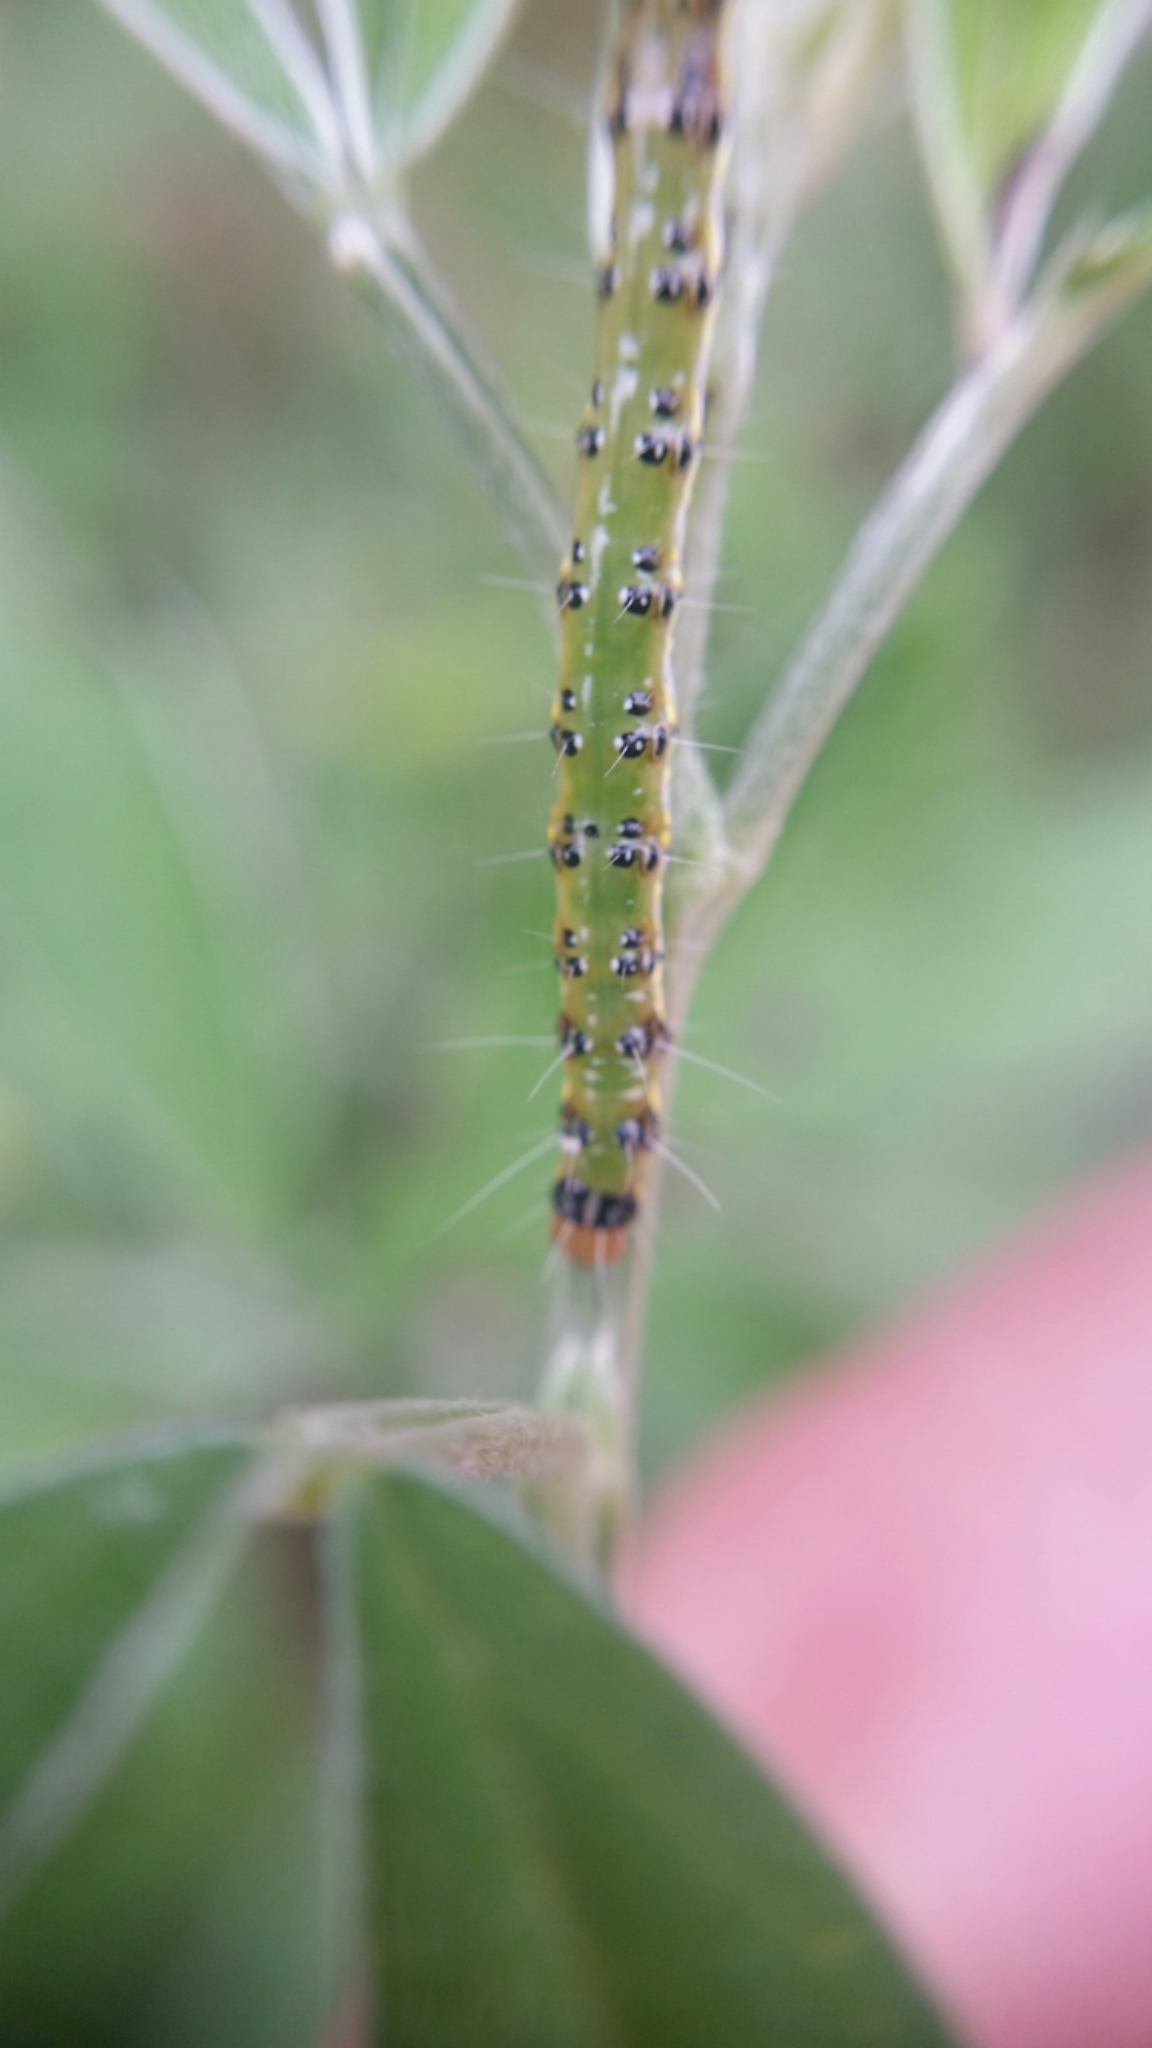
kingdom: Animalia
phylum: Arthropoda
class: Insecta
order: Lepidoptera
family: Crambidae
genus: Uresiphita
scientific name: Uresiphita
